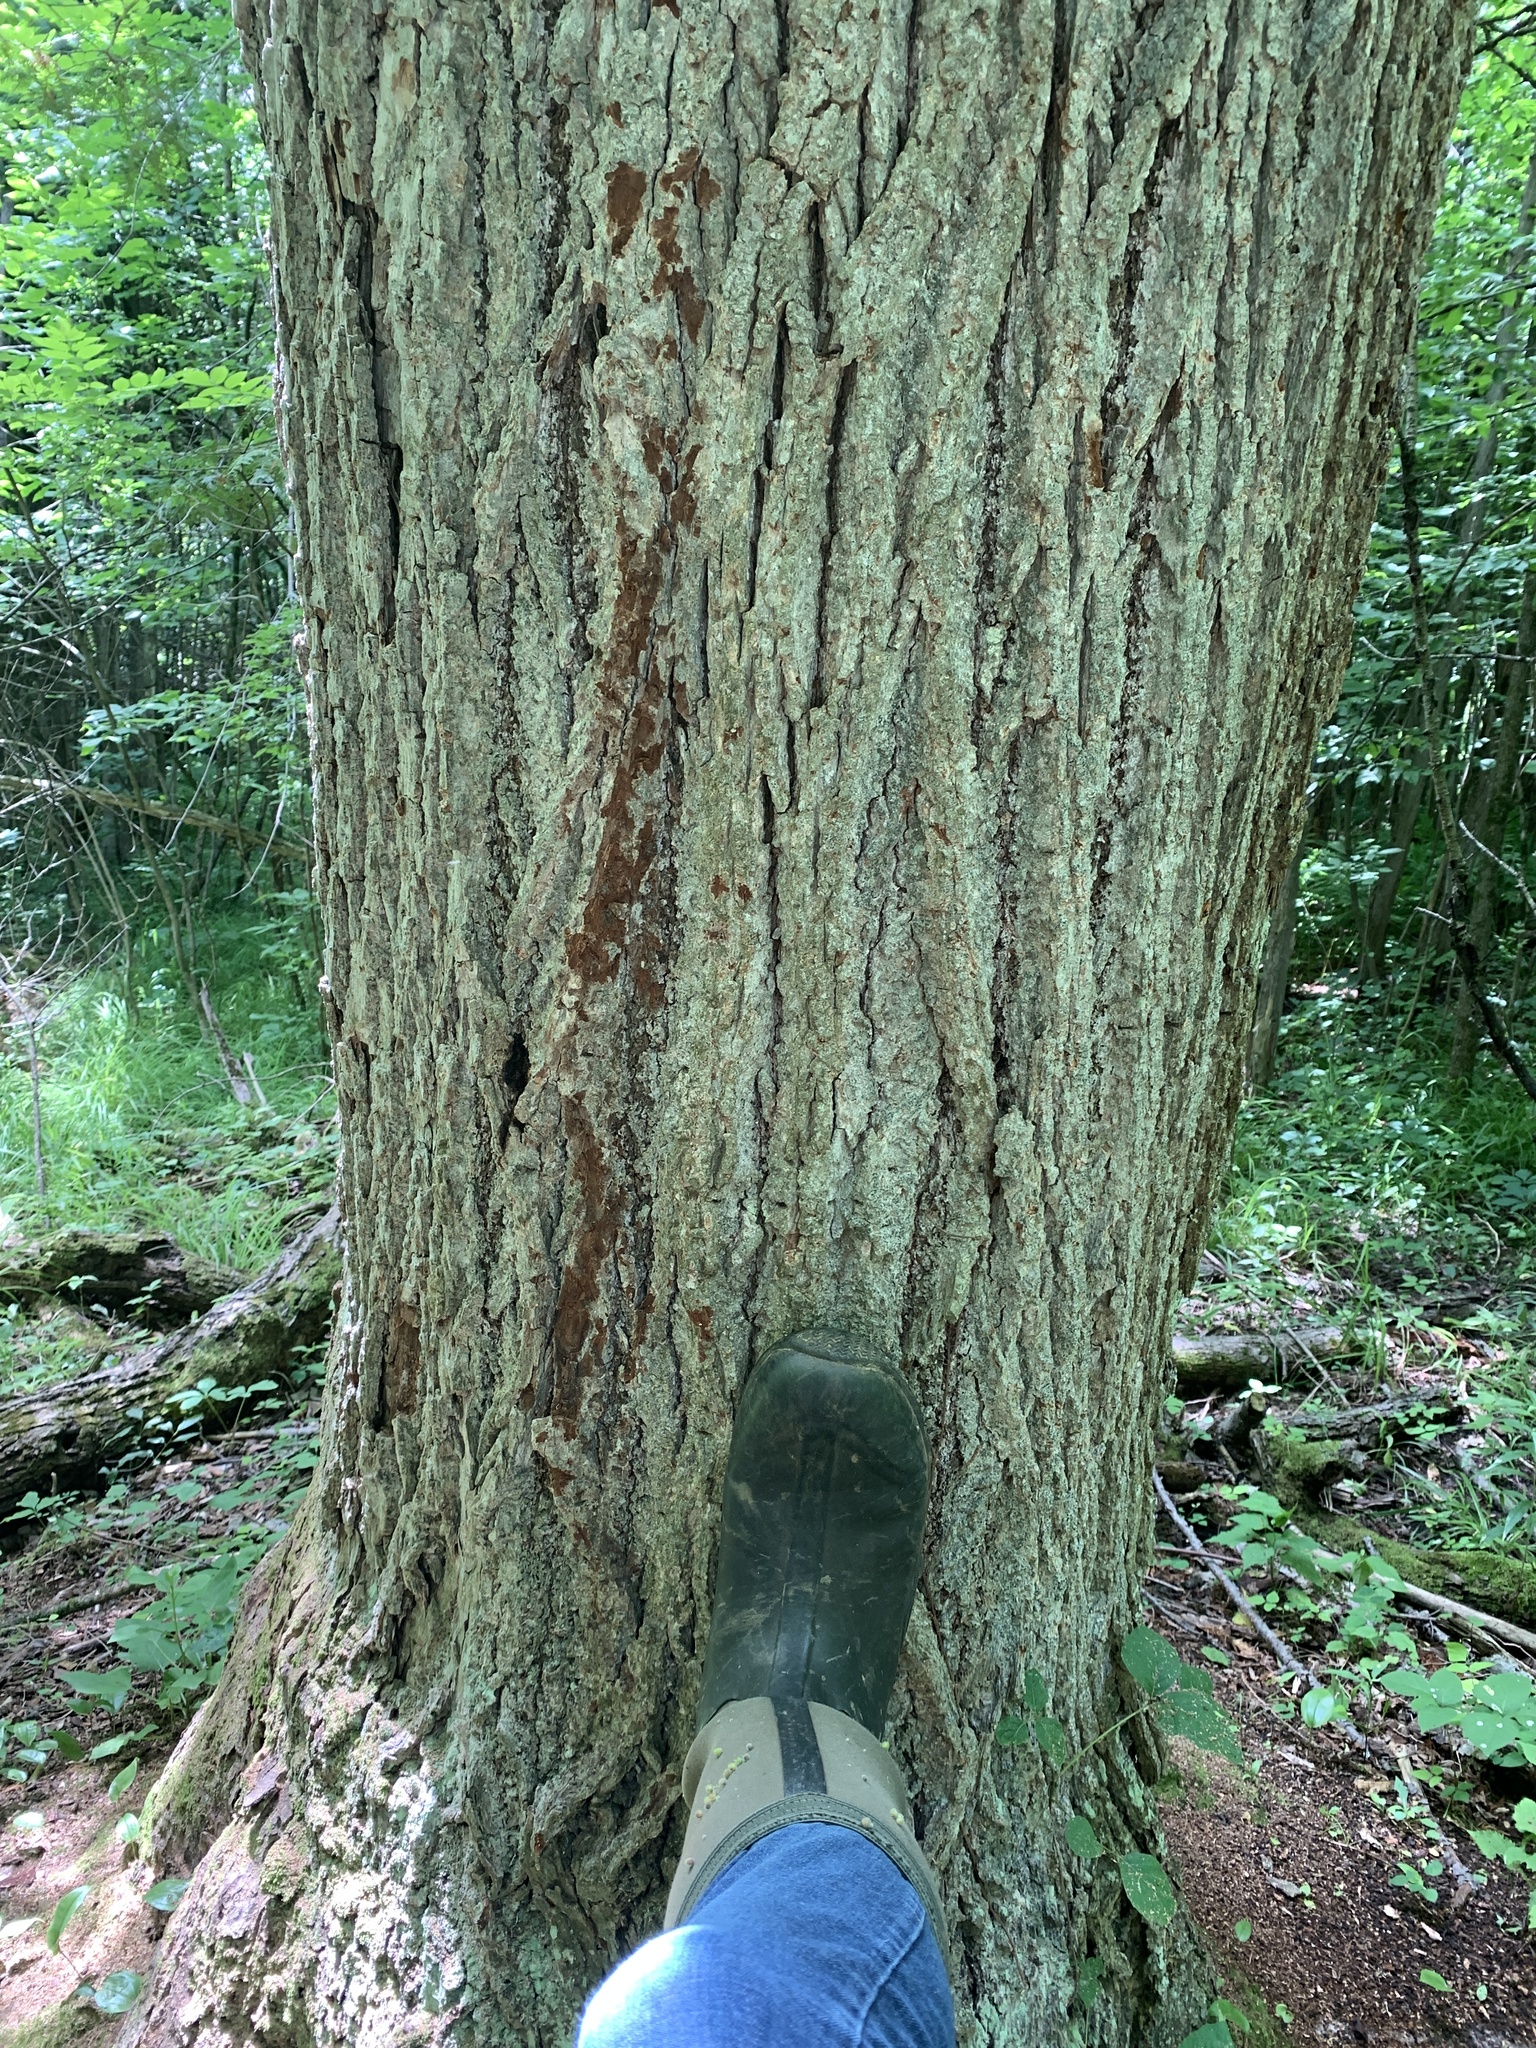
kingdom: Plantae
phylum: Tracheophyta
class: Magnoliopsida
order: Malvales
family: Malvaceae
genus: Tilia
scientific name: Tilia americana
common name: Basswood
